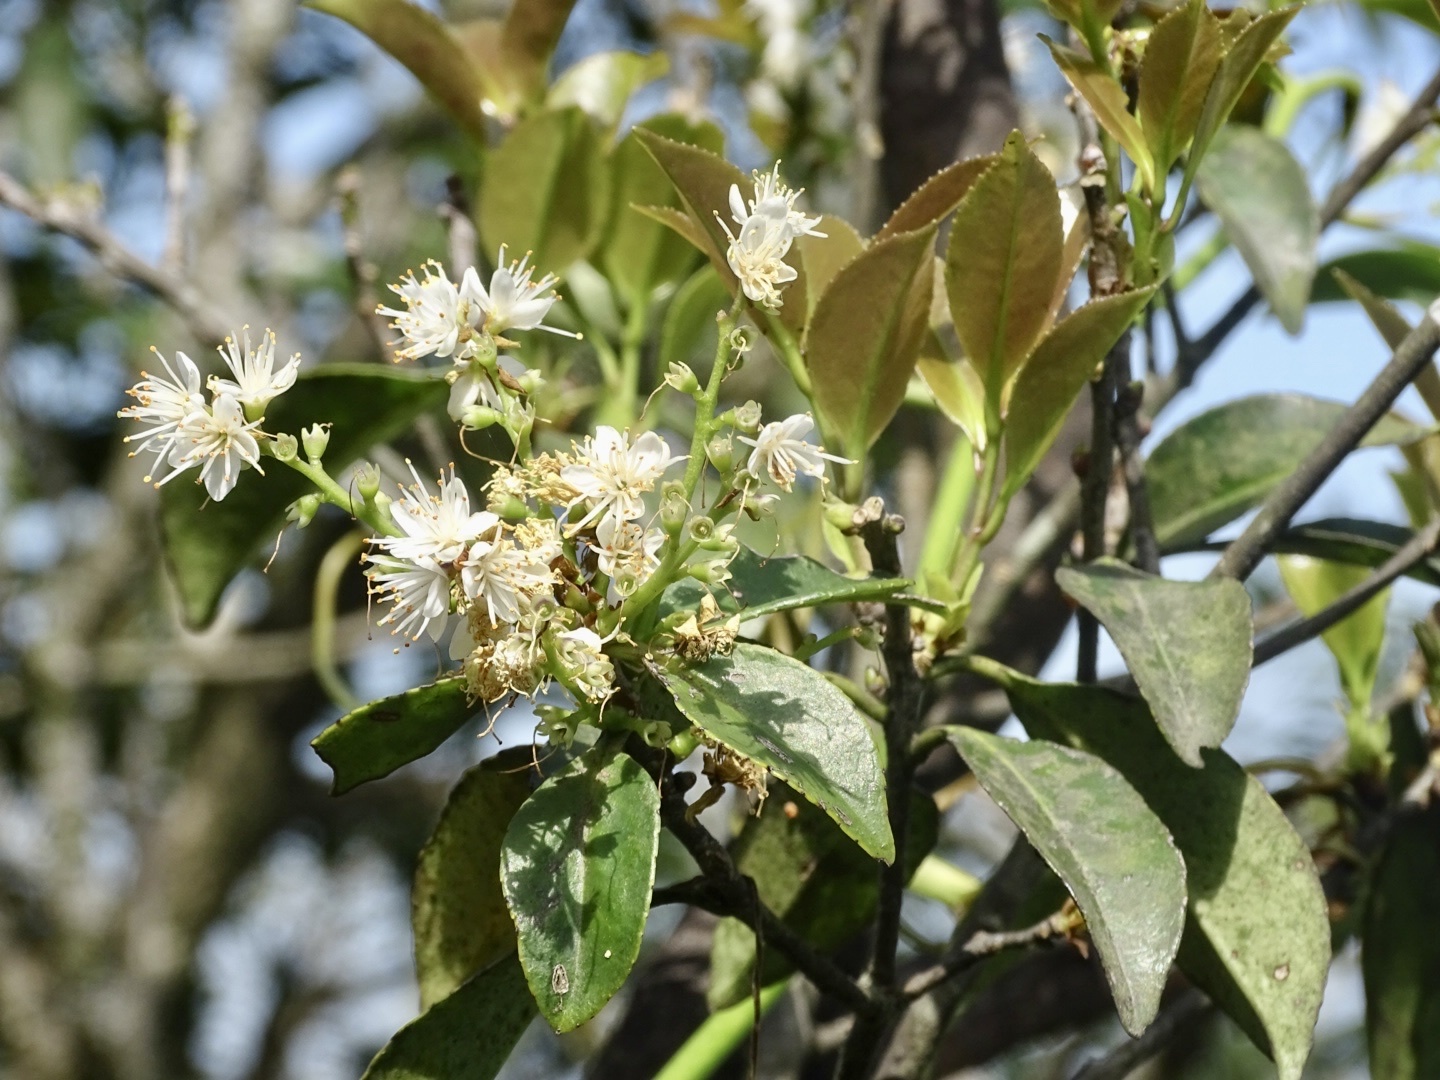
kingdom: Plantae
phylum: Tracheophyta
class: Magnoliopsida
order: Ericales
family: Symplocaceae
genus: Symplocos
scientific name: Symplocos sumuntia
